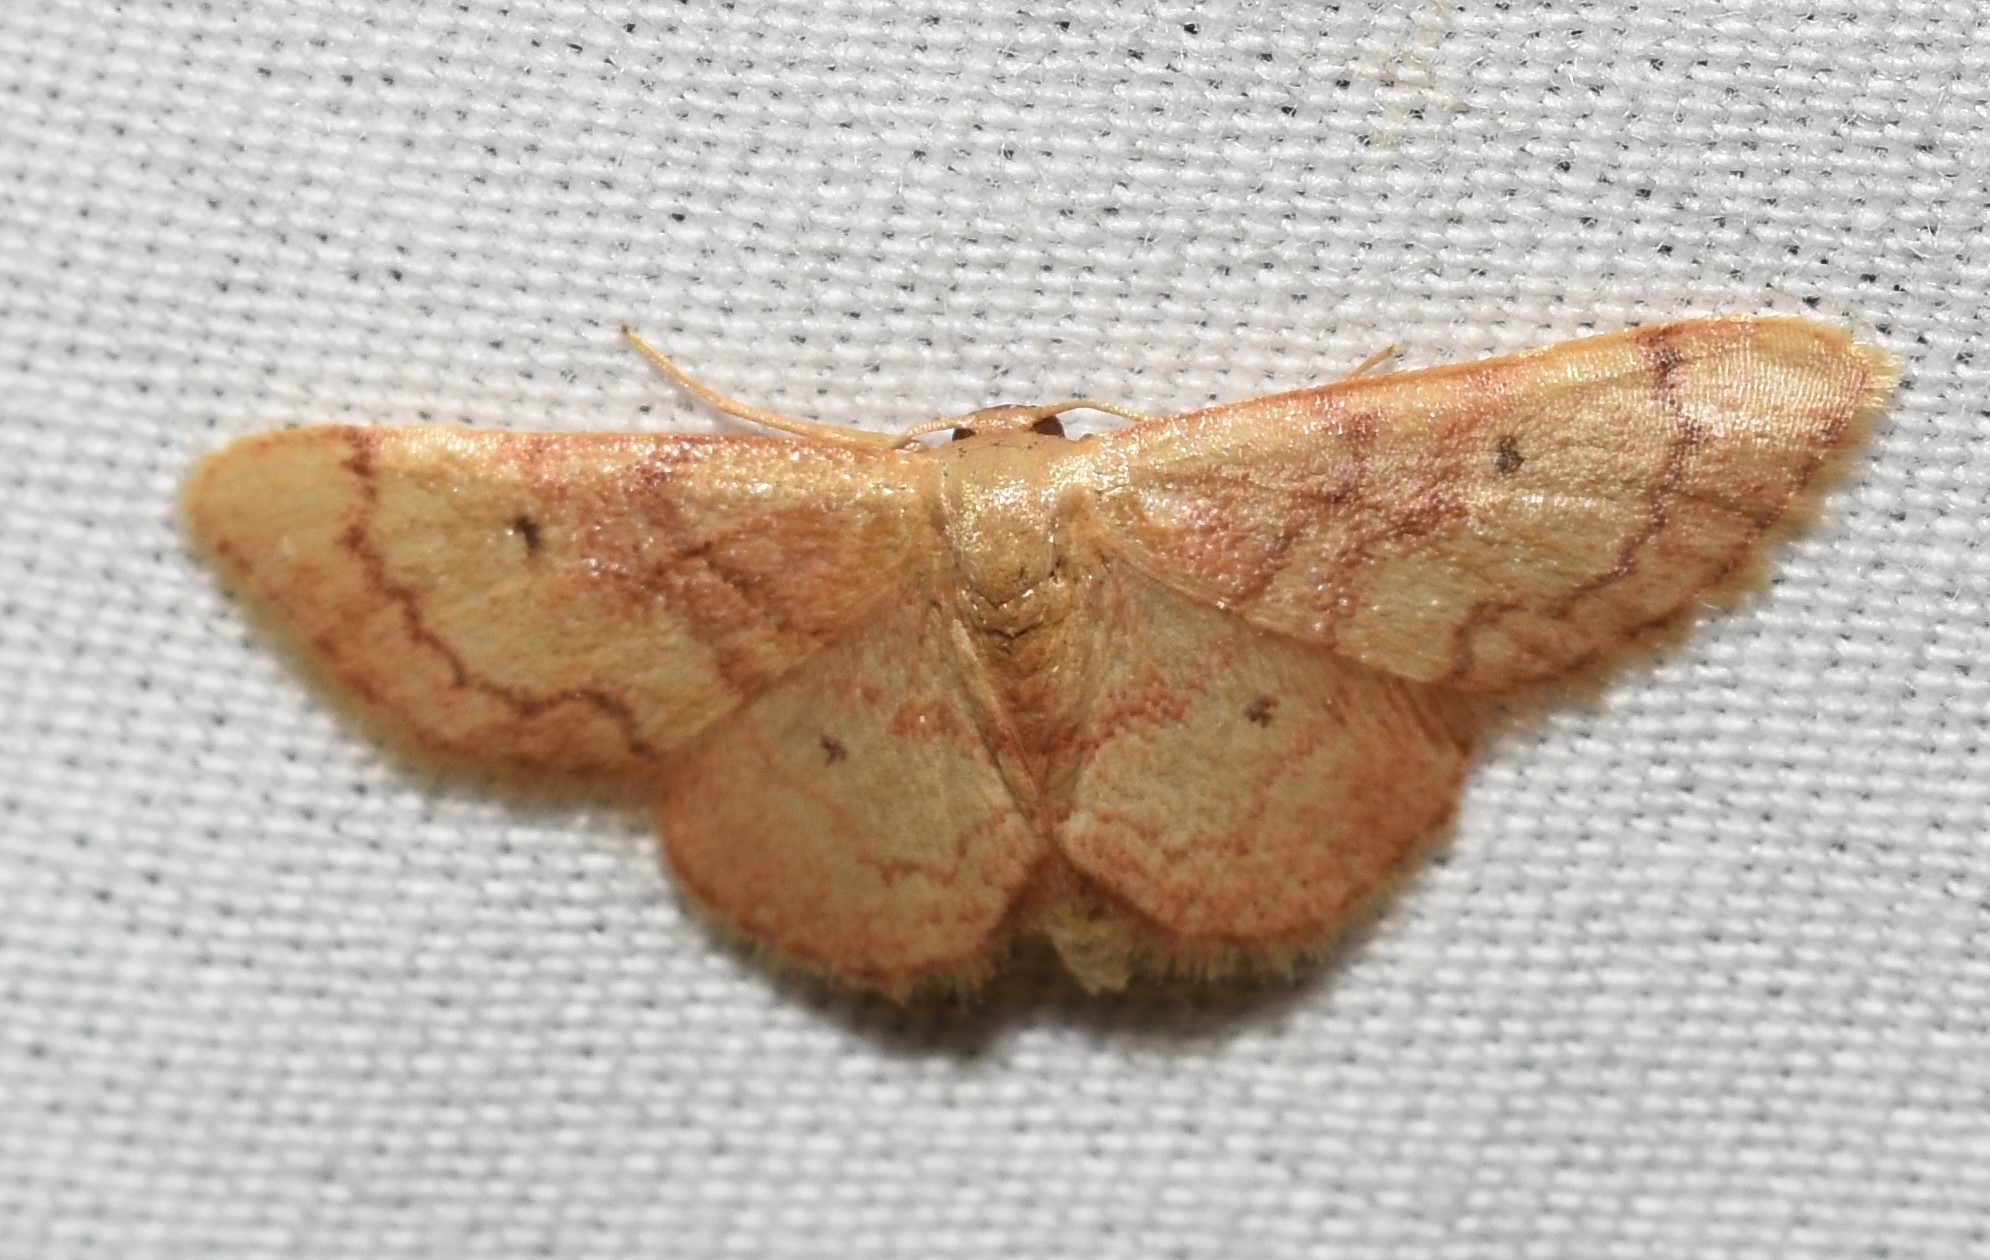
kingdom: Animalia
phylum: Arthropoda
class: Insecta
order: Lepidoptera
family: Geometridae
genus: Idaea
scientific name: Idaea demissaria
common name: Red-bordered wave
